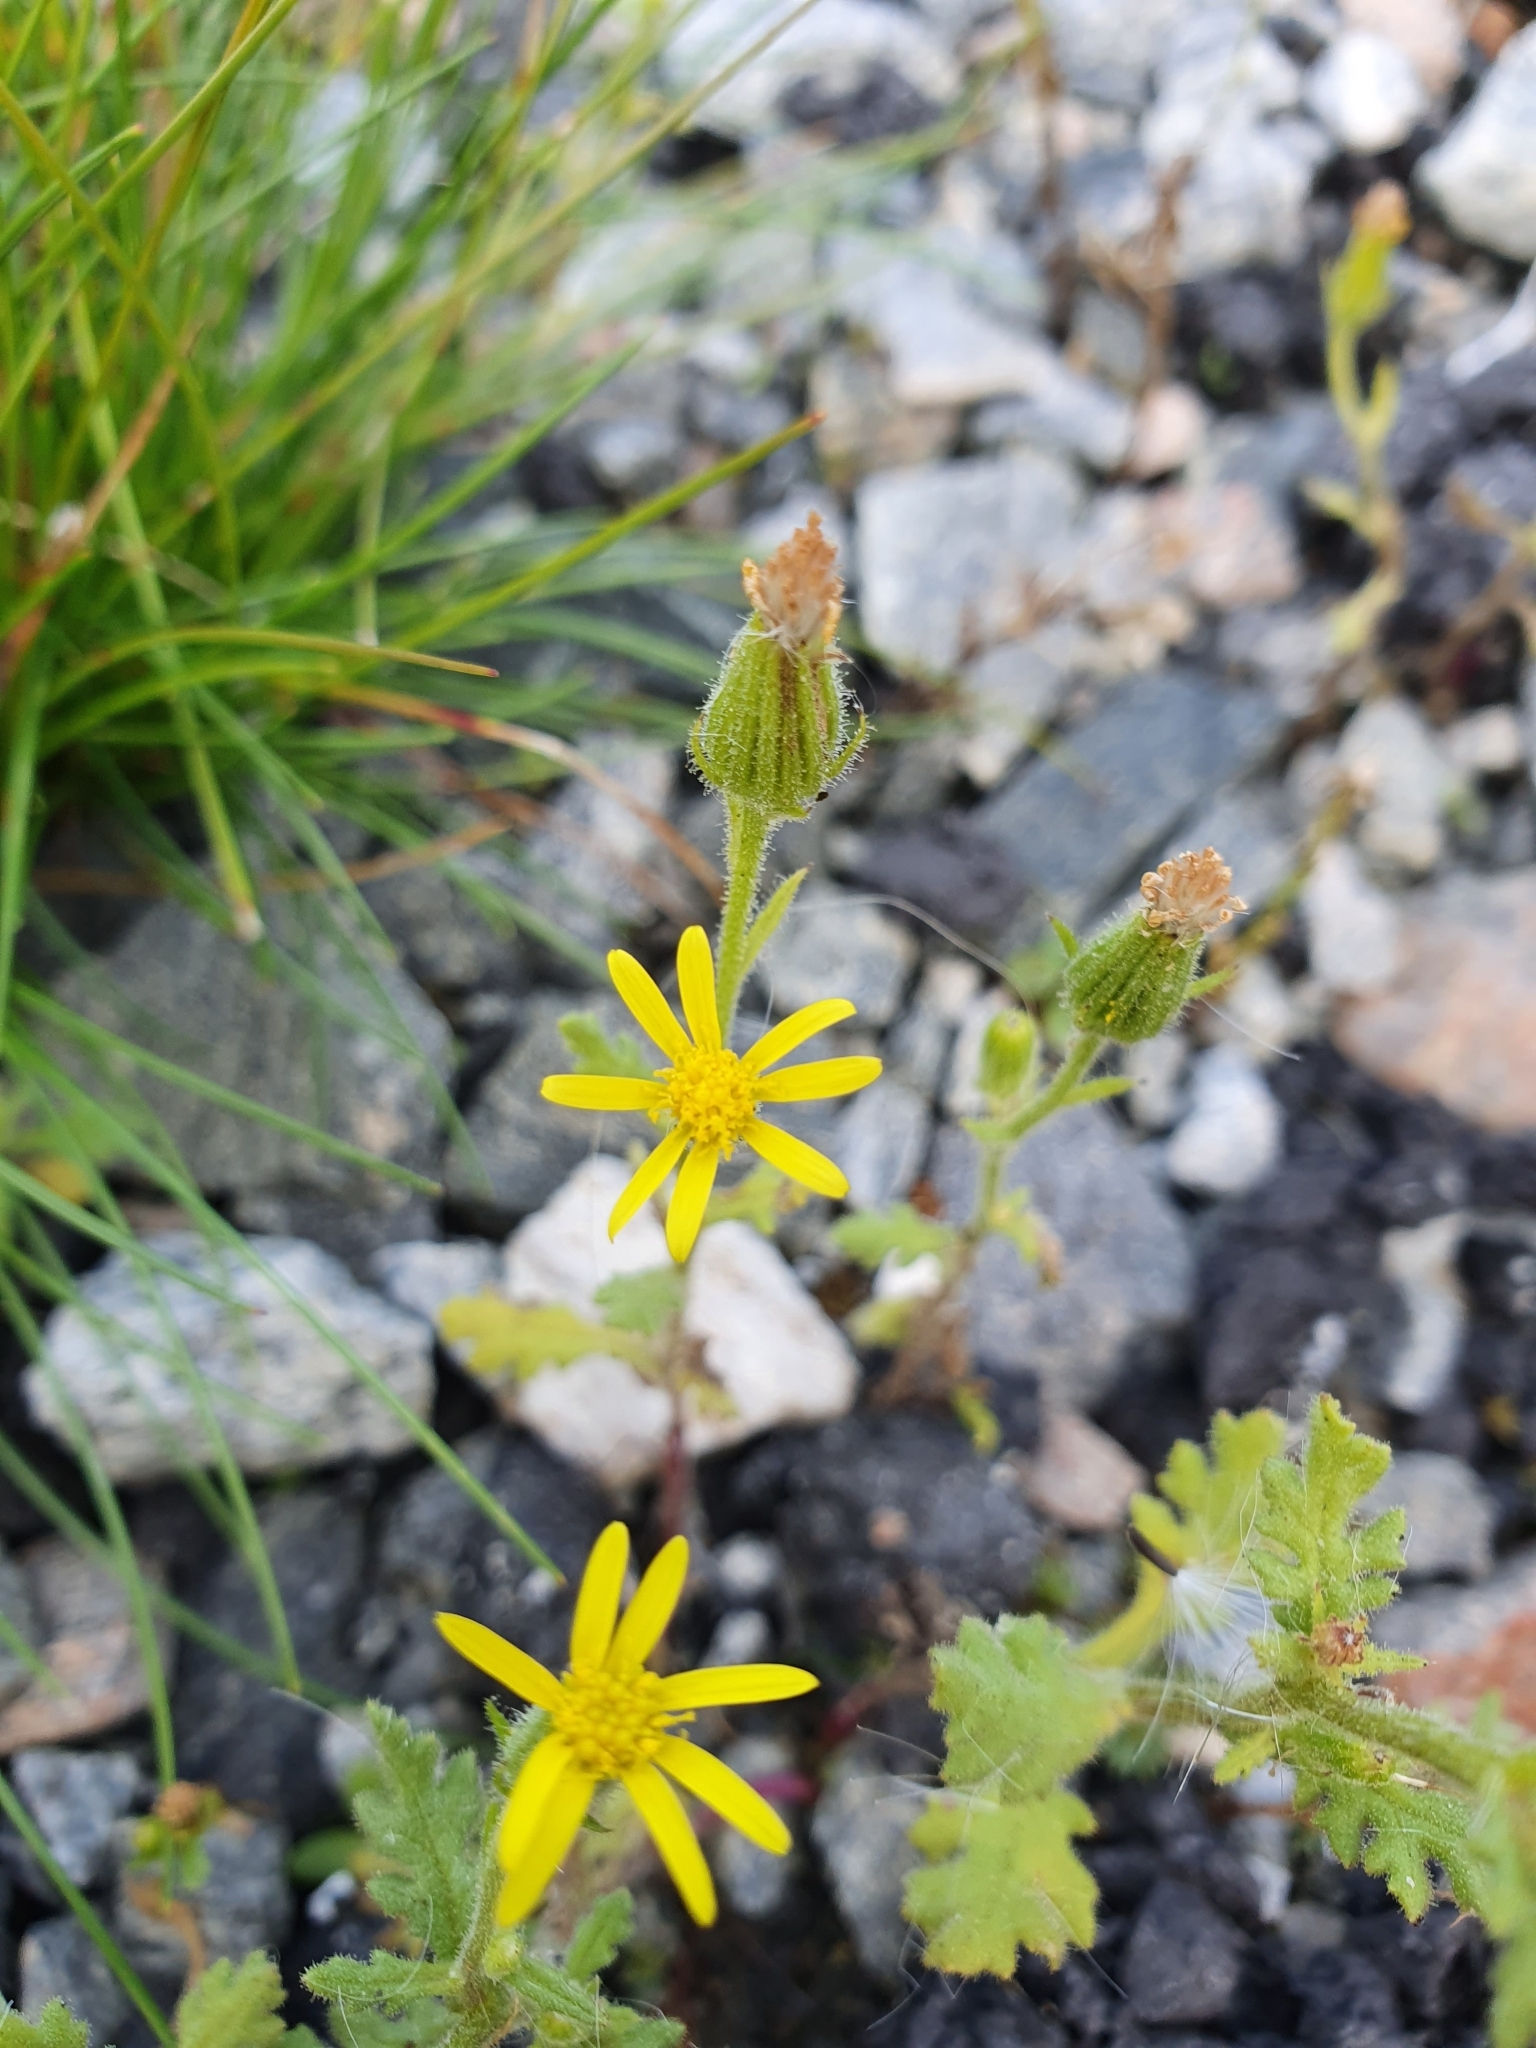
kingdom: Plantae
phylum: Tracheophyta
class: Magnoliopsida
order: Asterales
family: Asteraceae
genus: Senecio
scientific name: Senecio viscosus
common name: Sticky groundsel
